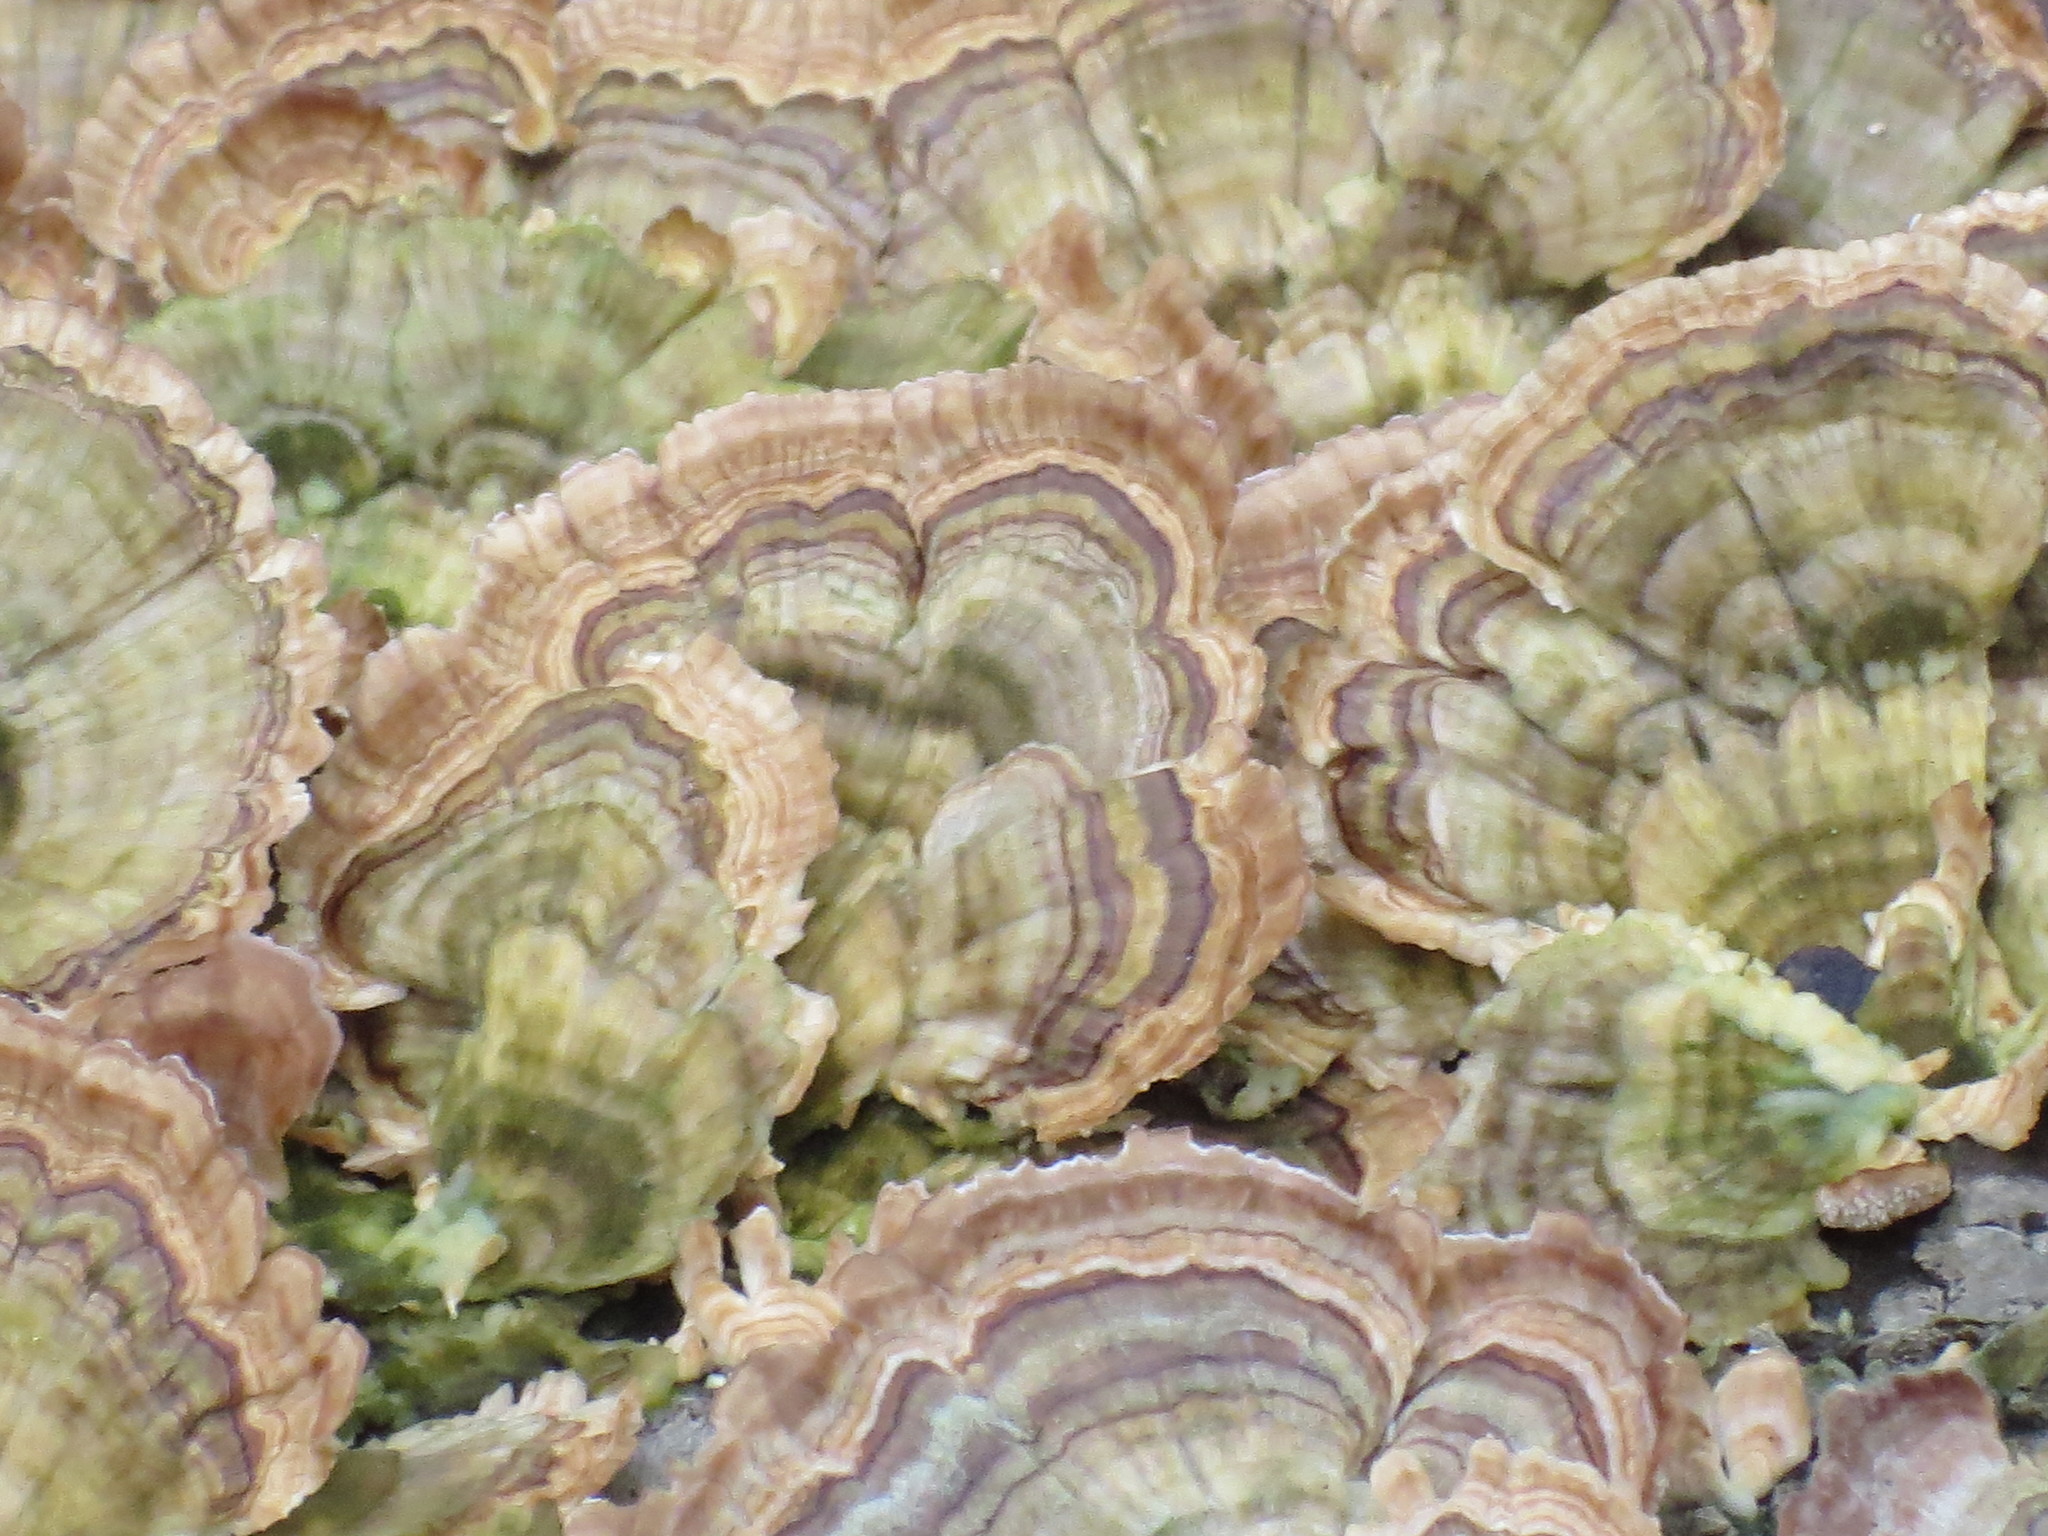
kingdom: Fungi
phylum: Basidiomycota
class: Agaricomycetes
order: Hymenochaetales
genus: Trichaptum
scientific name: Trichaptum biforme
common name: Violet-toothed polypore
